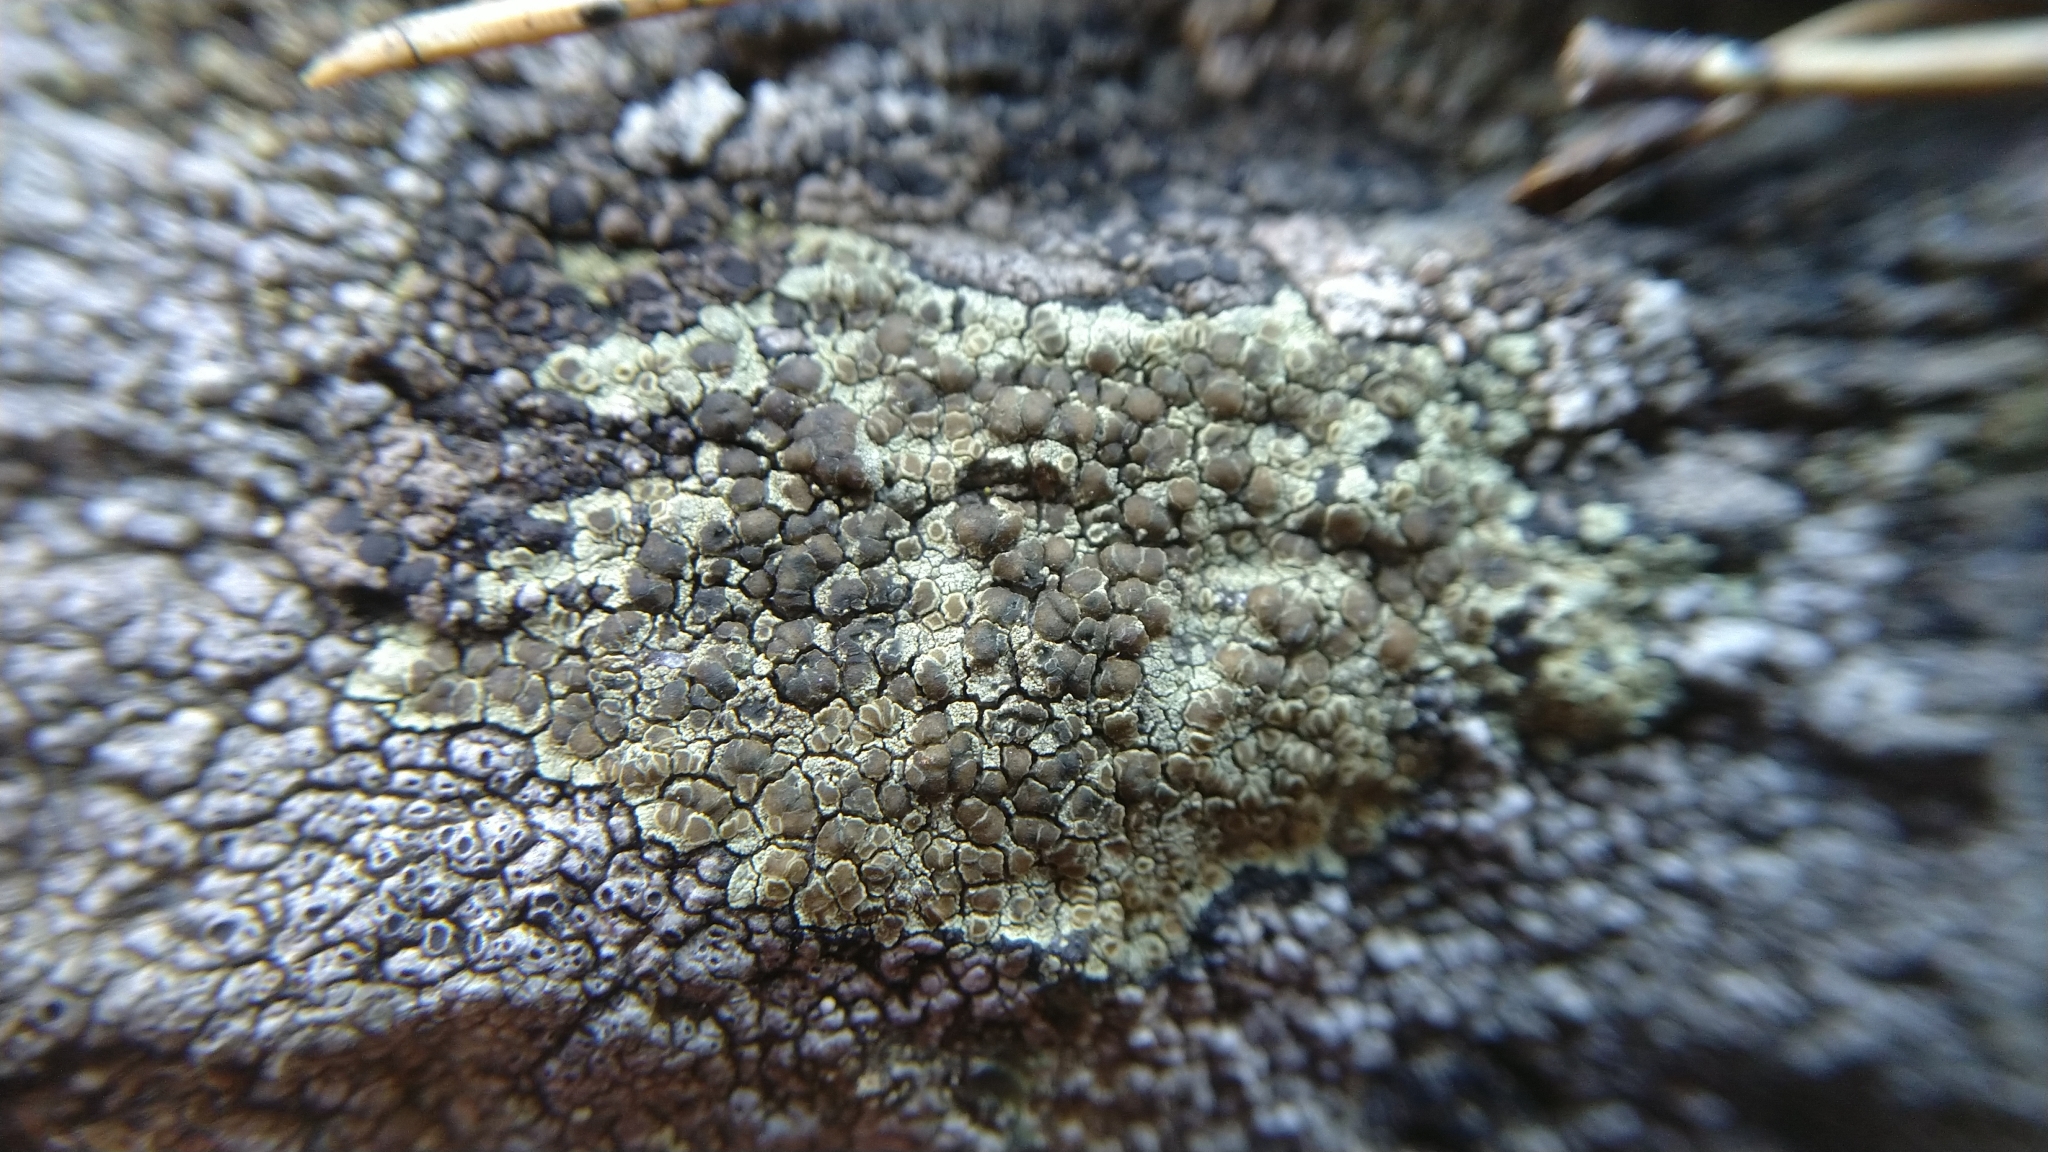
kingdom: Fungi
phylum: Ascomycota
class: Lecanoromycetes
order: Lecanorales
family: Lecanoraceae
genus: Lecanora
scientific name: Lecanora
